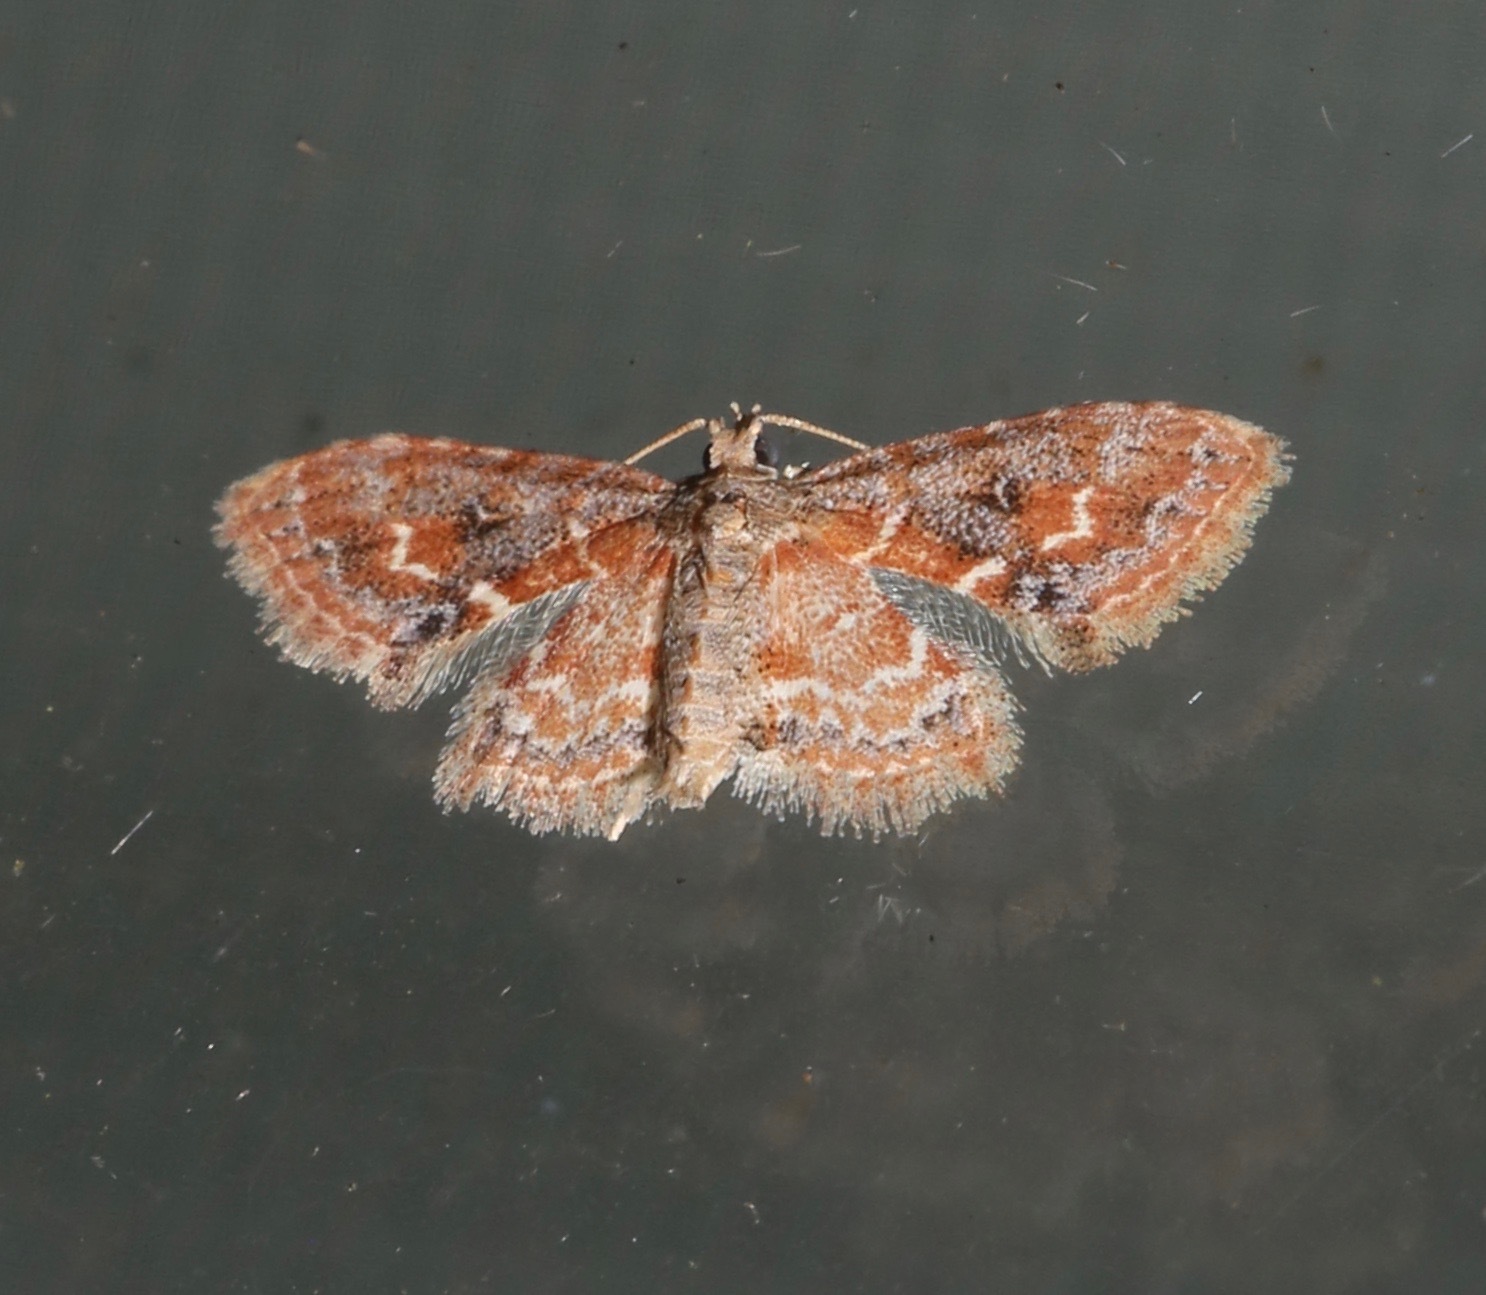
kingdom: Animalia
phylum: Arthropoda
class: Insecta
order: Lepidoptera
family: Erebidae
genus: Sigela
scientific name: Sigela sordes
